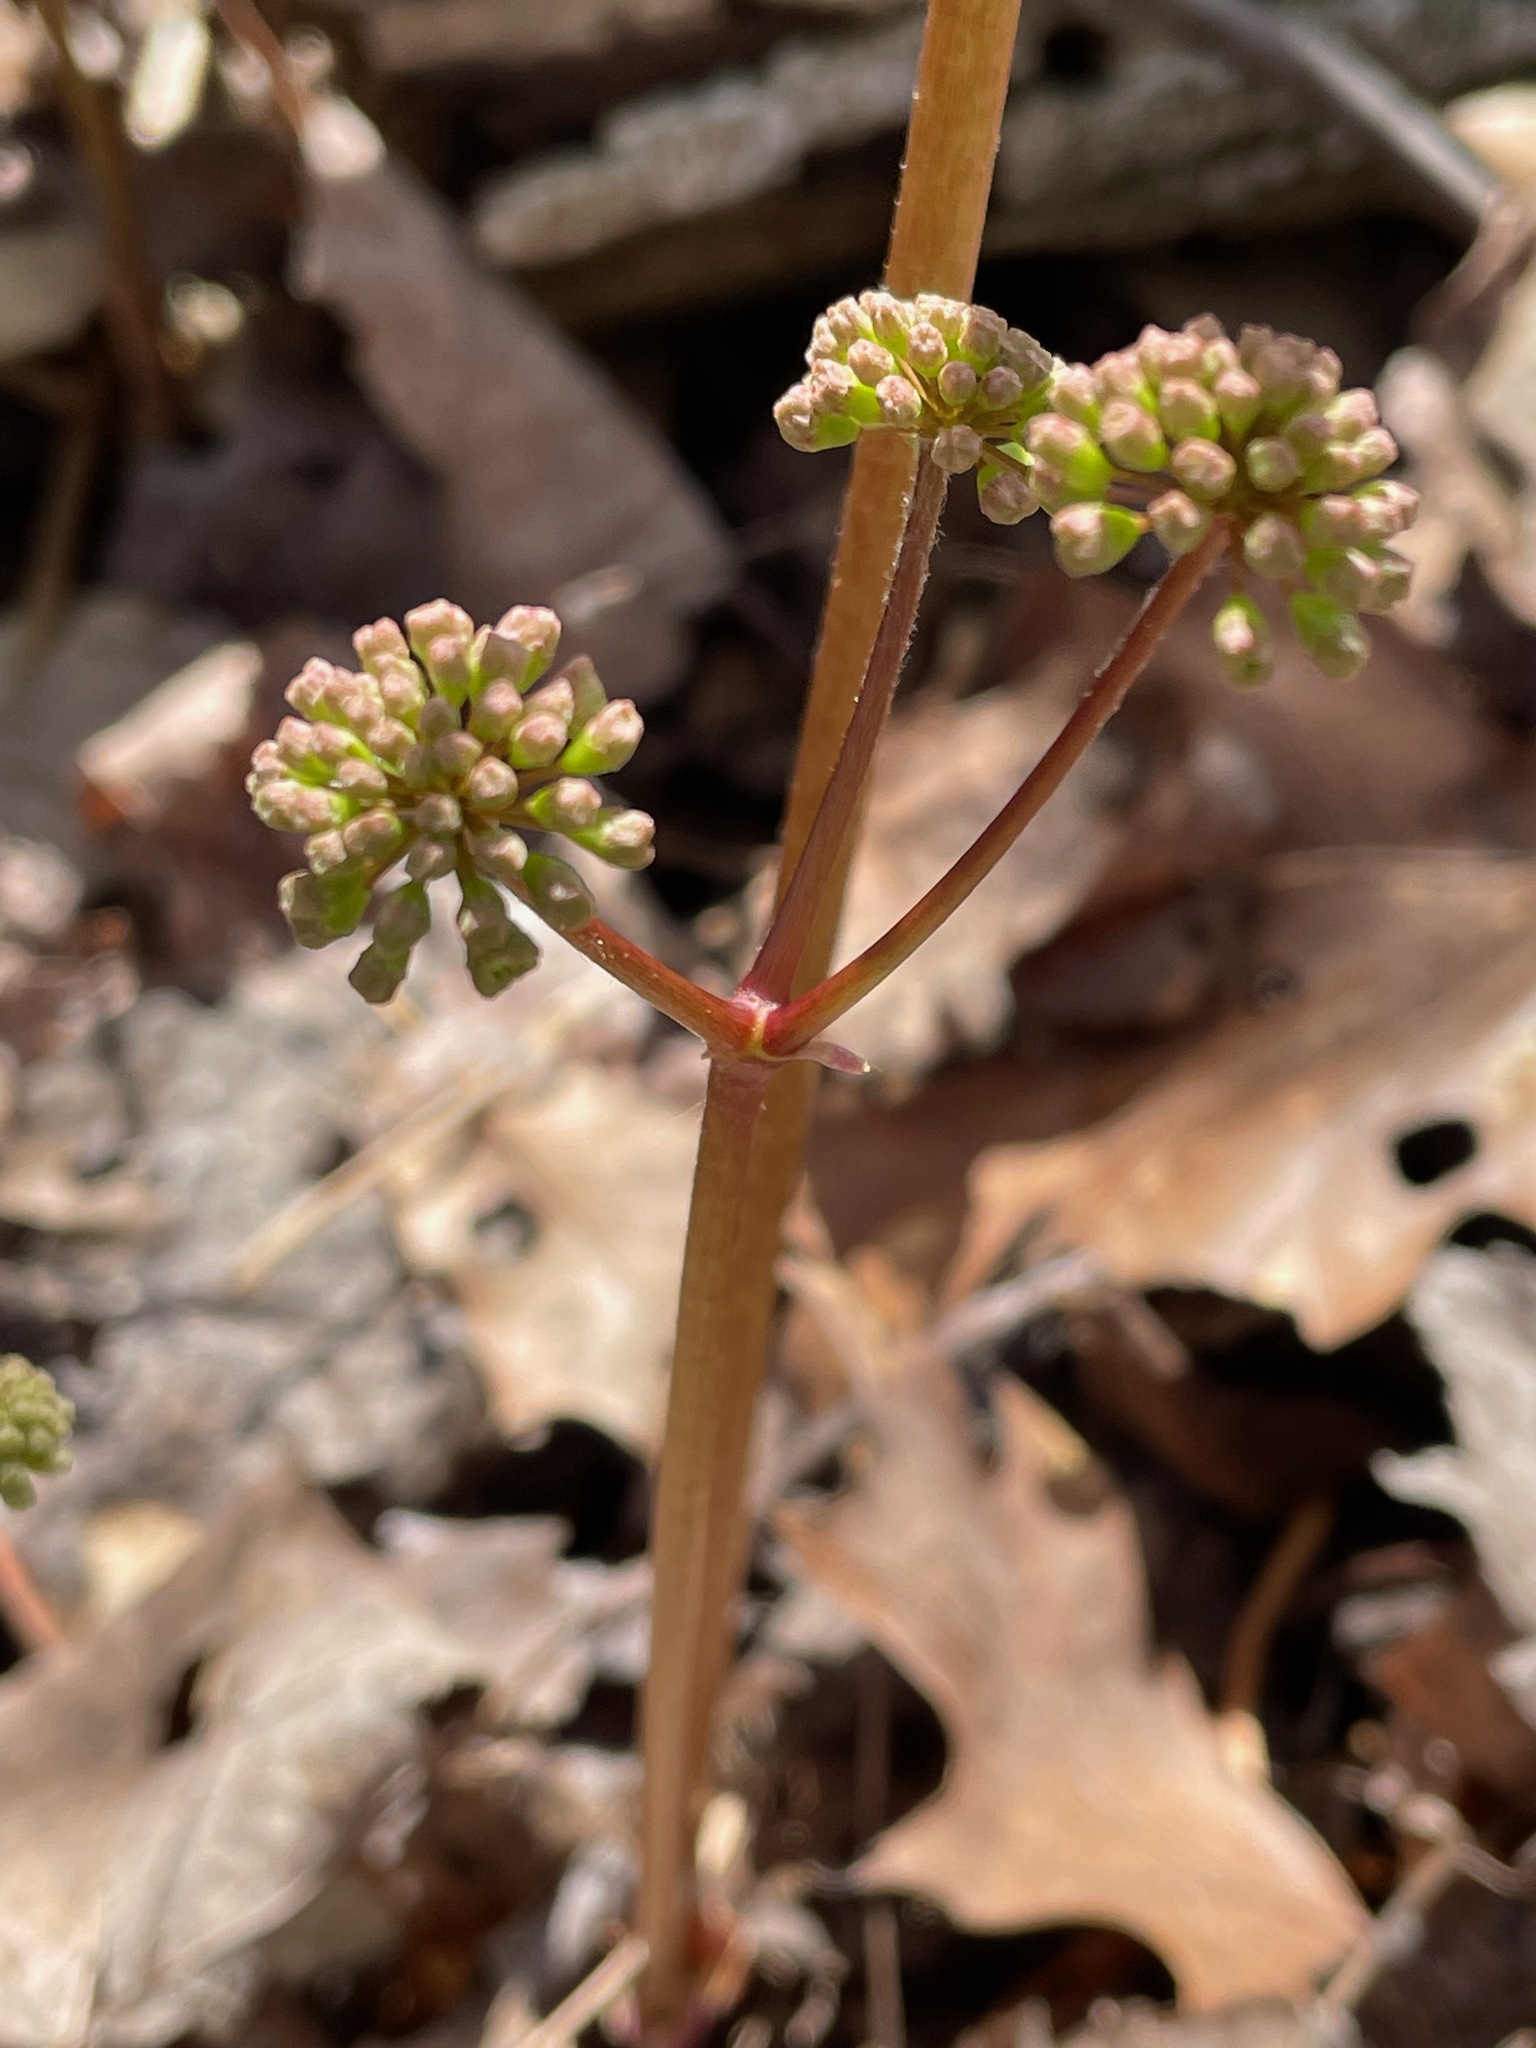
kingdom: Plantae
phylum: Tracheophyta
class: Magnoliopsida
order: Apiales
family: Araliaceae
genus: Aralia
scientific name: Aralia nudicaulis
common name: Wild sarsaparilla
